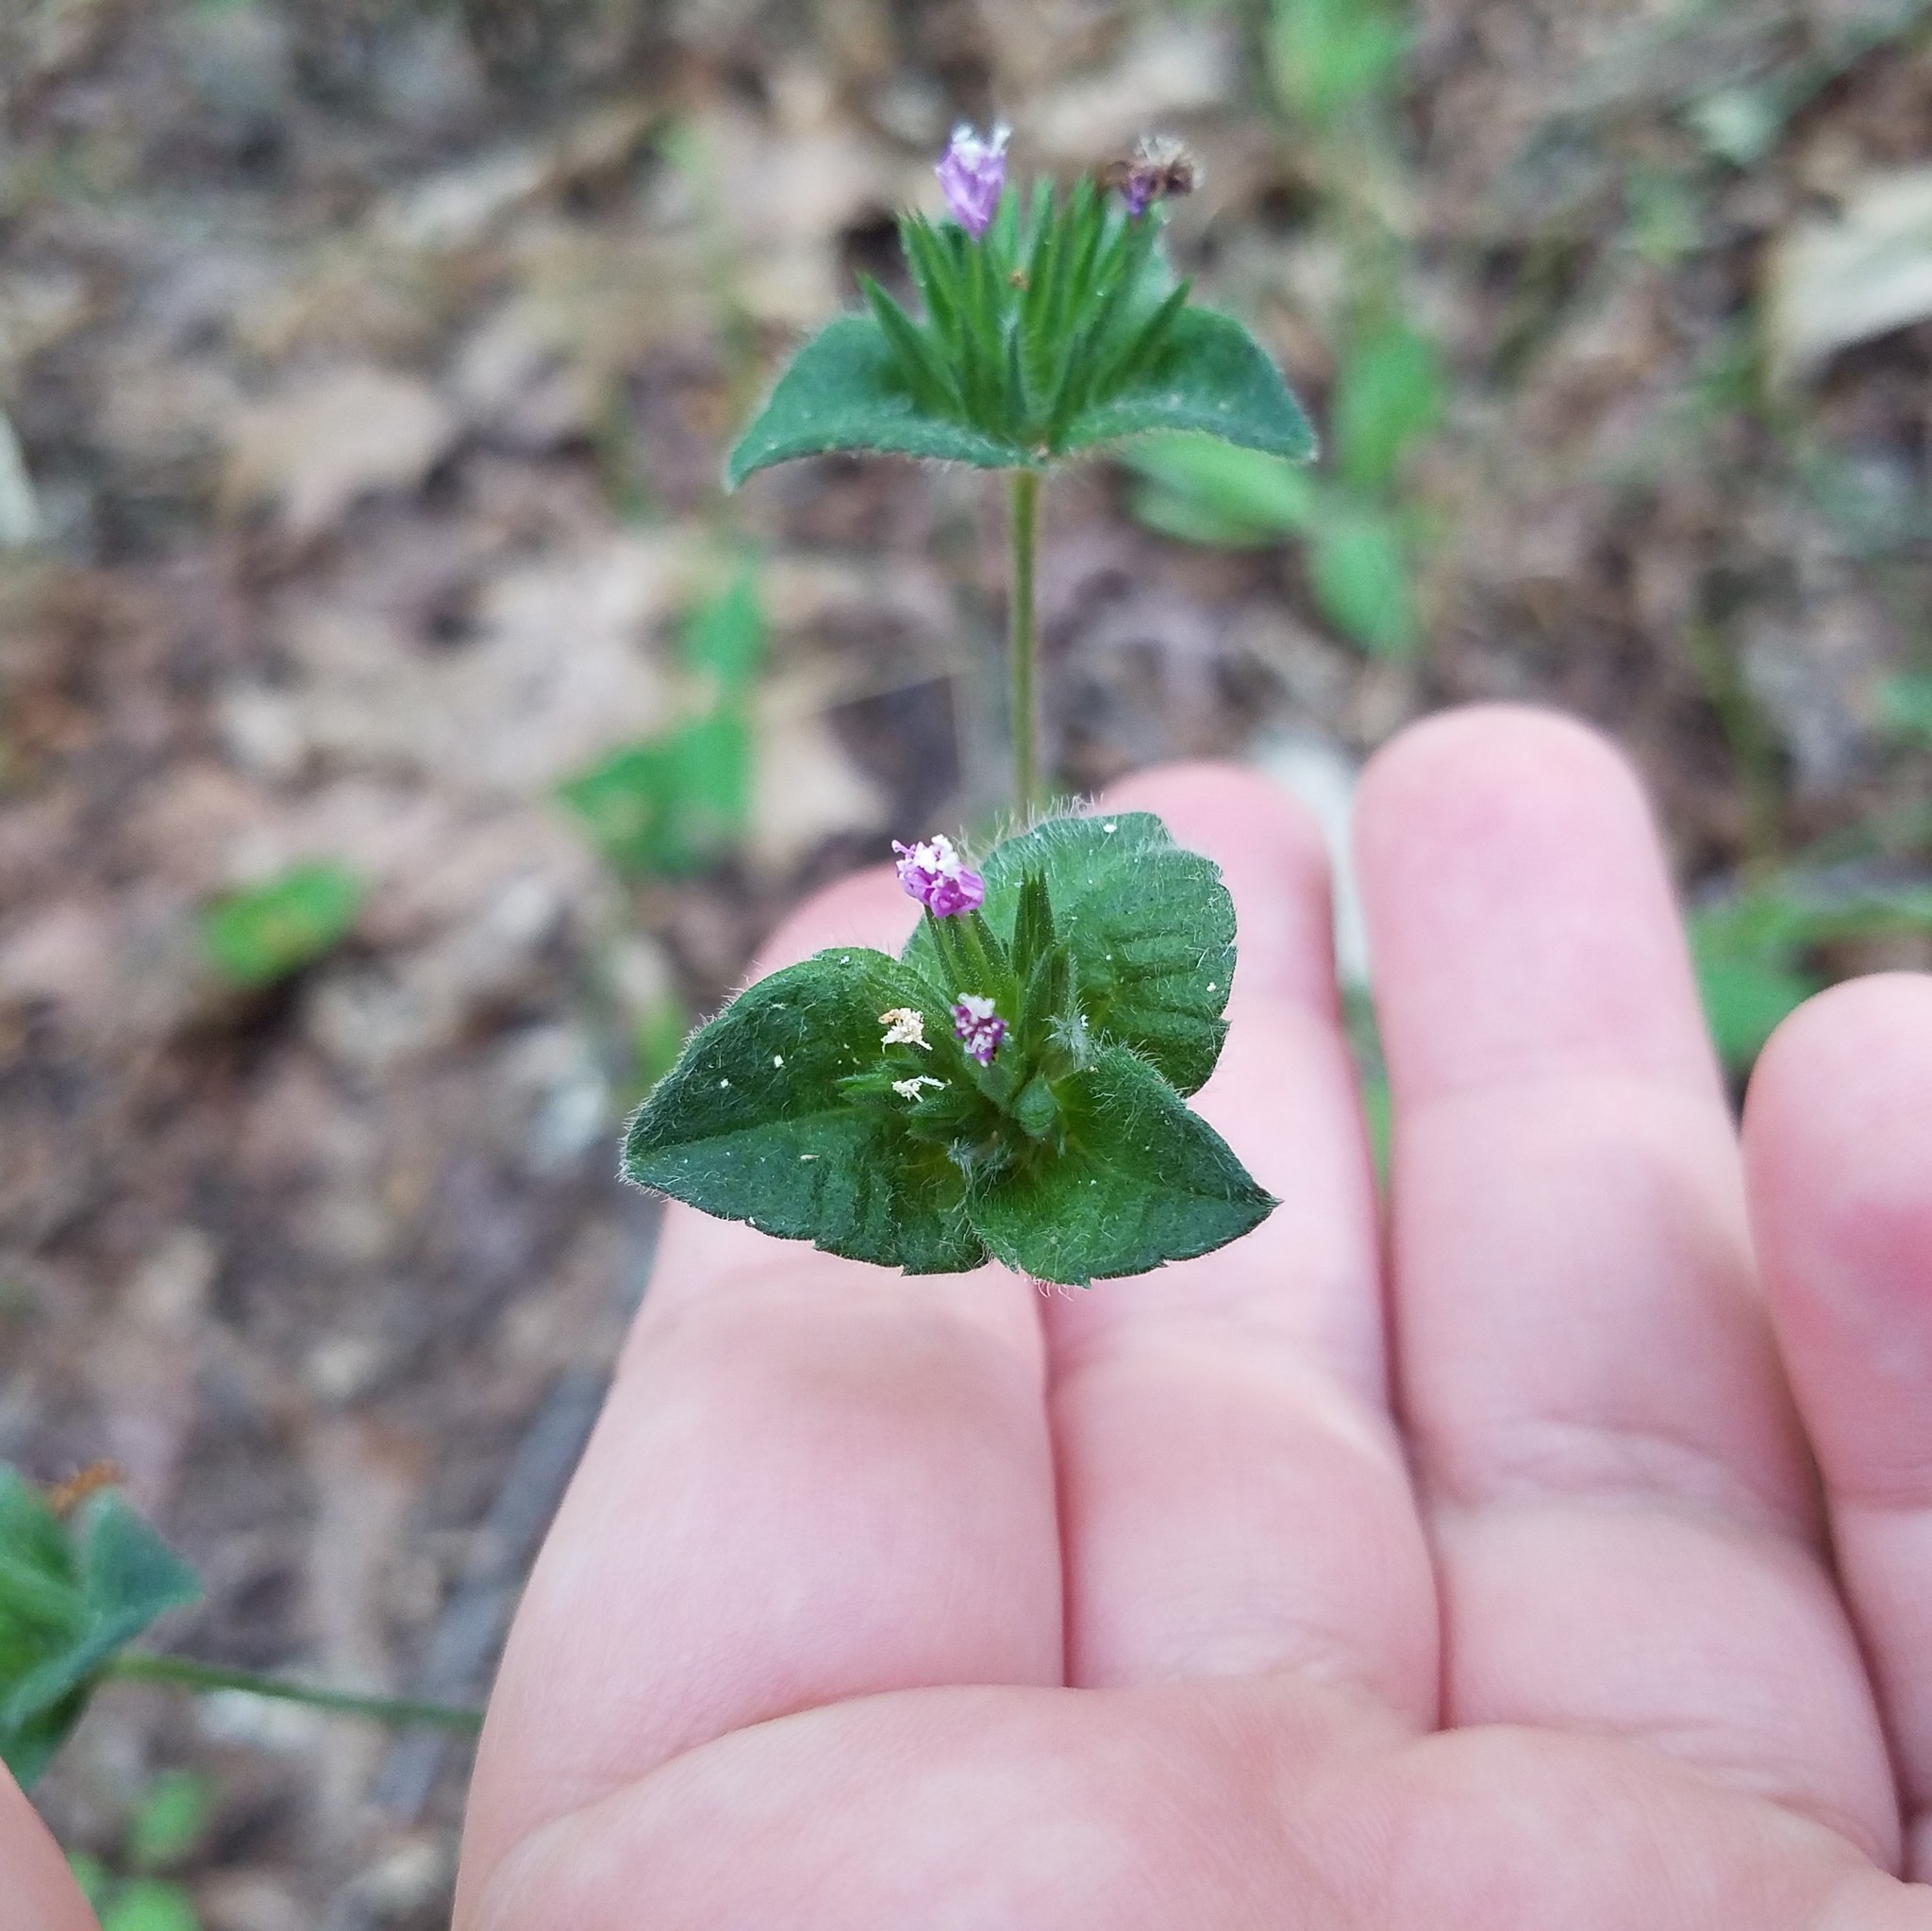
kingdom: Plantae
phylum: Tracheophyta
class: Magnoliopsida
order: Asterales
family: Asteraceae
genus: Elephantopus
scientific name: Elephantopus tomentosus
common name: Tobacco-weed
